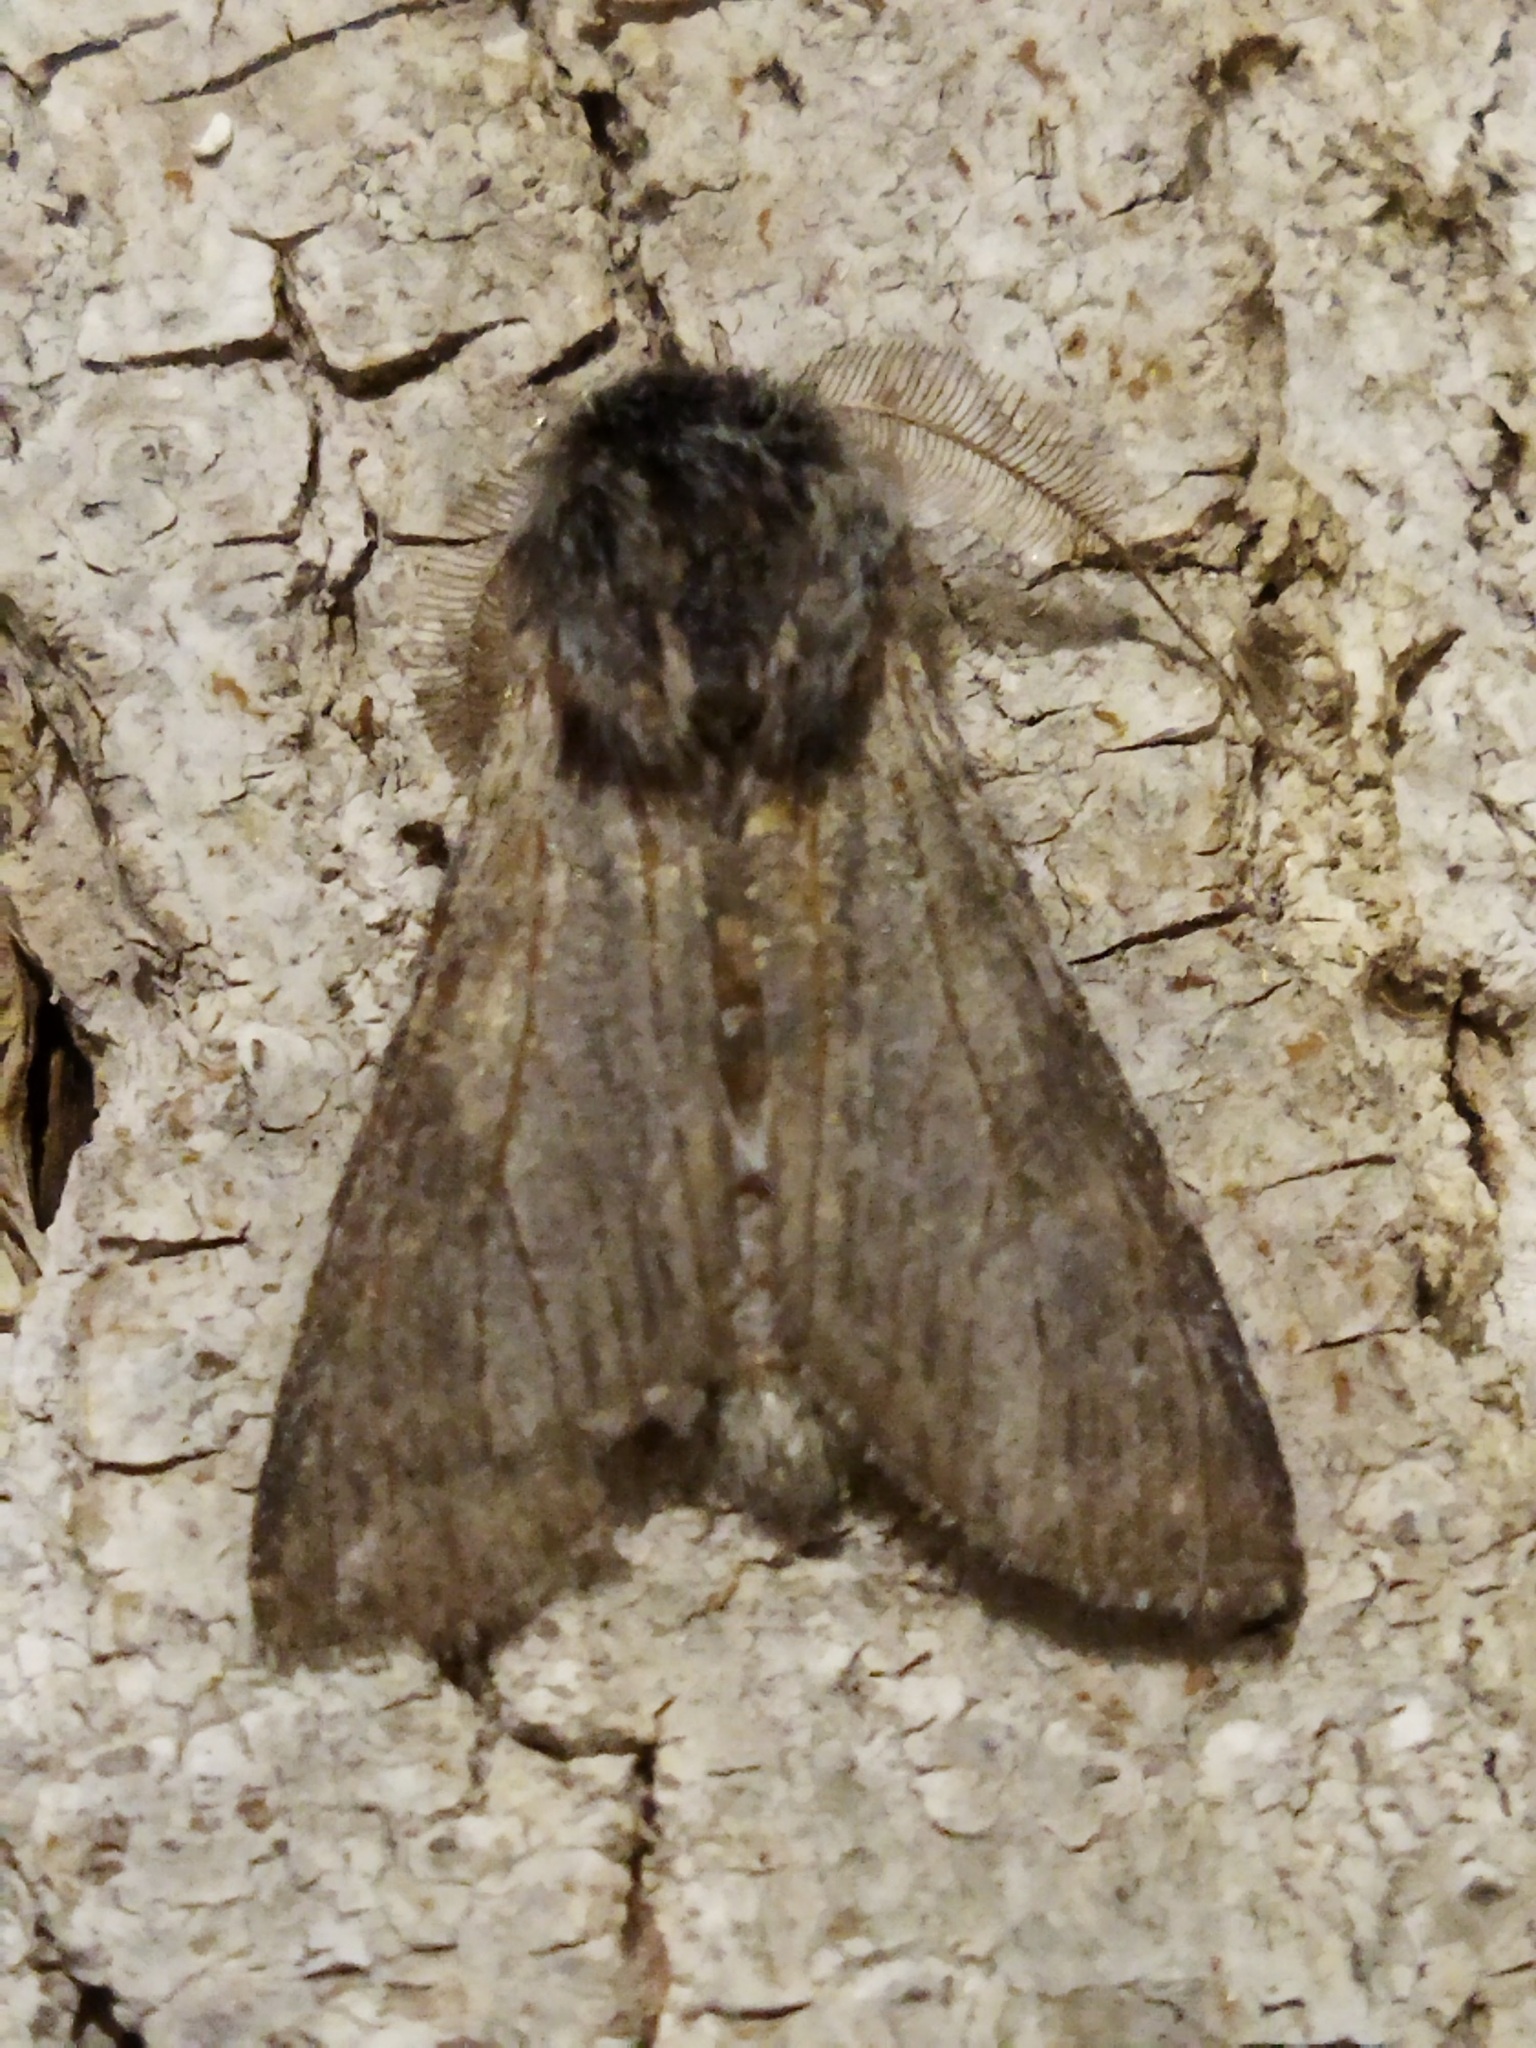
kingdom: Animalia
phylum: Arthropoda
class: Insecta
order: Lepidoptera
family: Notodontidae
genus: Dicranura
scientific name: Dicranura ulmi
